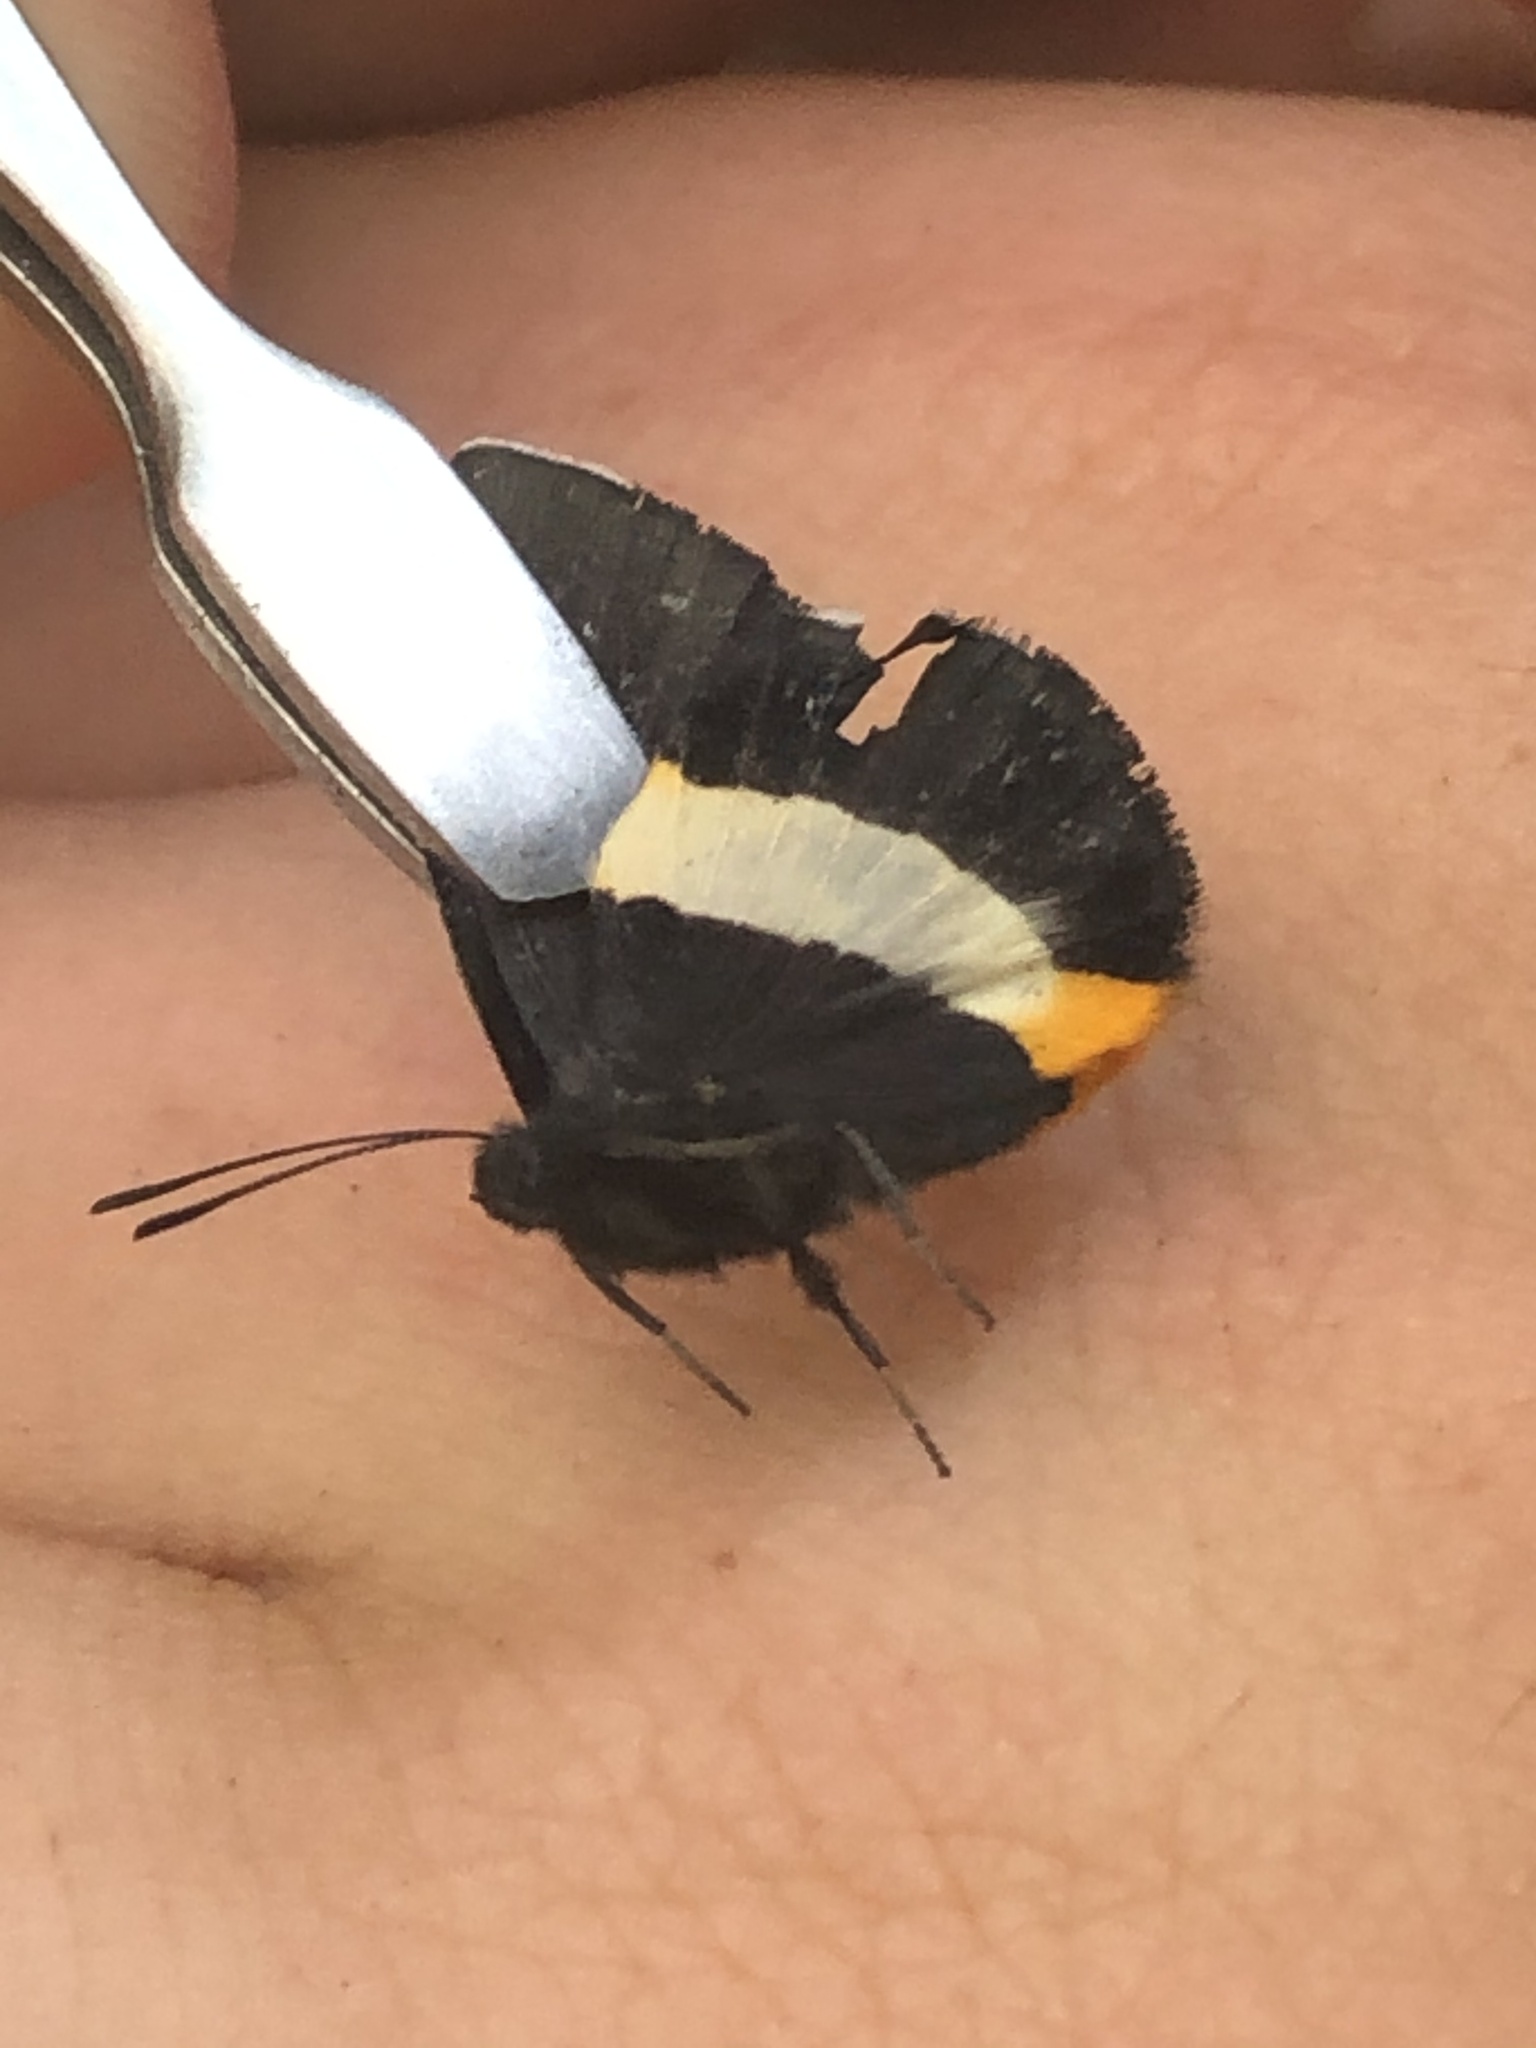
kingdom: Animalia
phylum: Arthropoda
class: Insecta
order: Lepidoptera
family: Riodinidae
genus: Notheme
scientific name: Notheme eumeus
